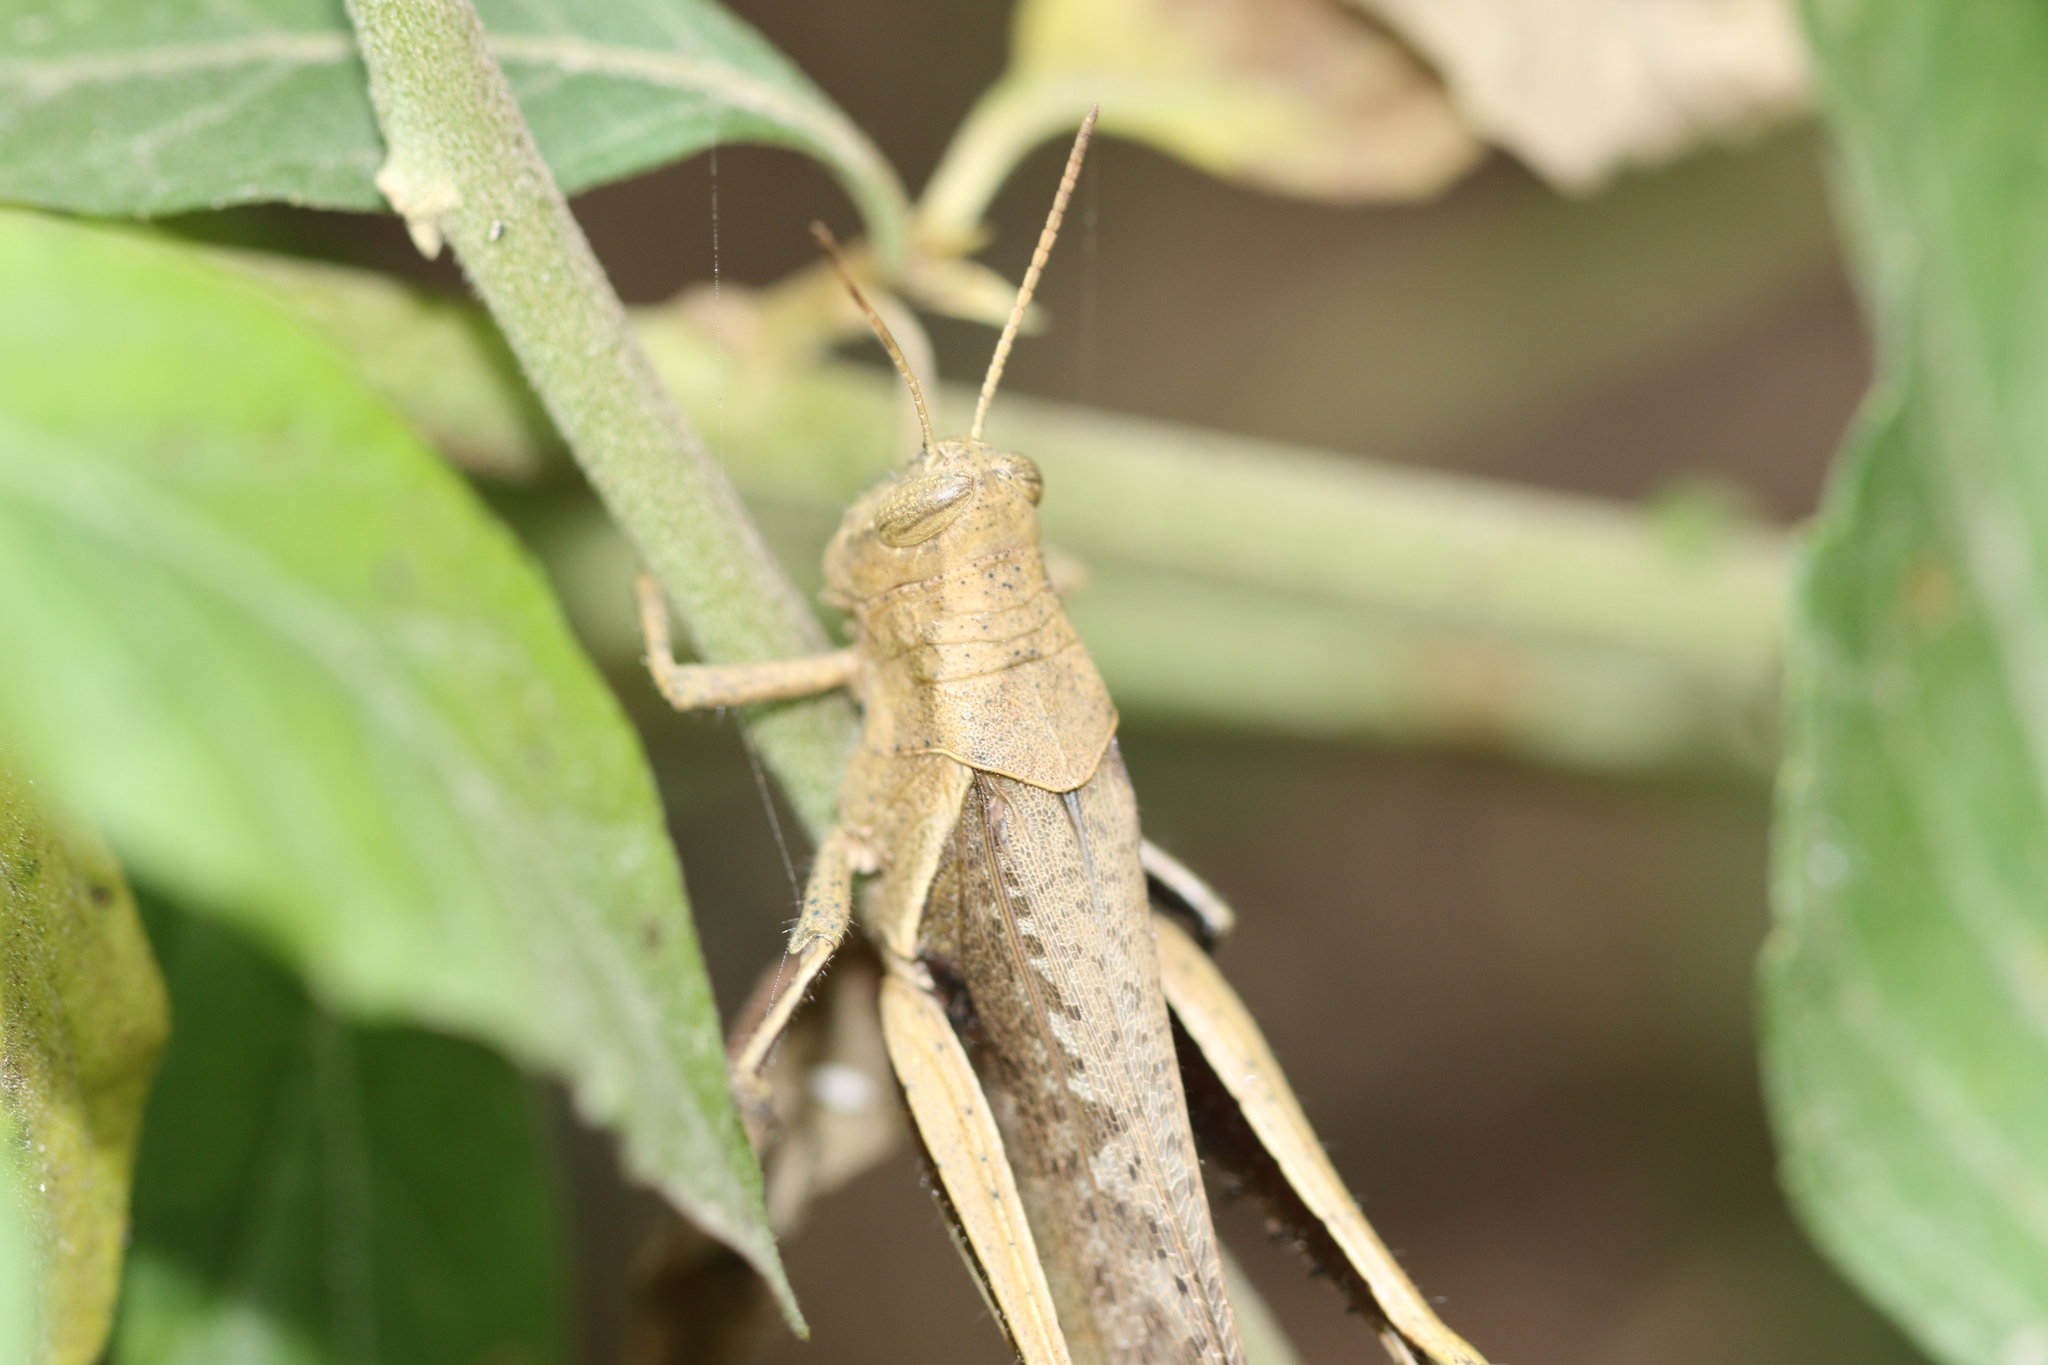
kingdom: Animalia
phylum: Arthropoda
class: Insecta
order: Orthoptera
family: Acrididae
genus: Abracris
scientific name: Abracris flavolineata
